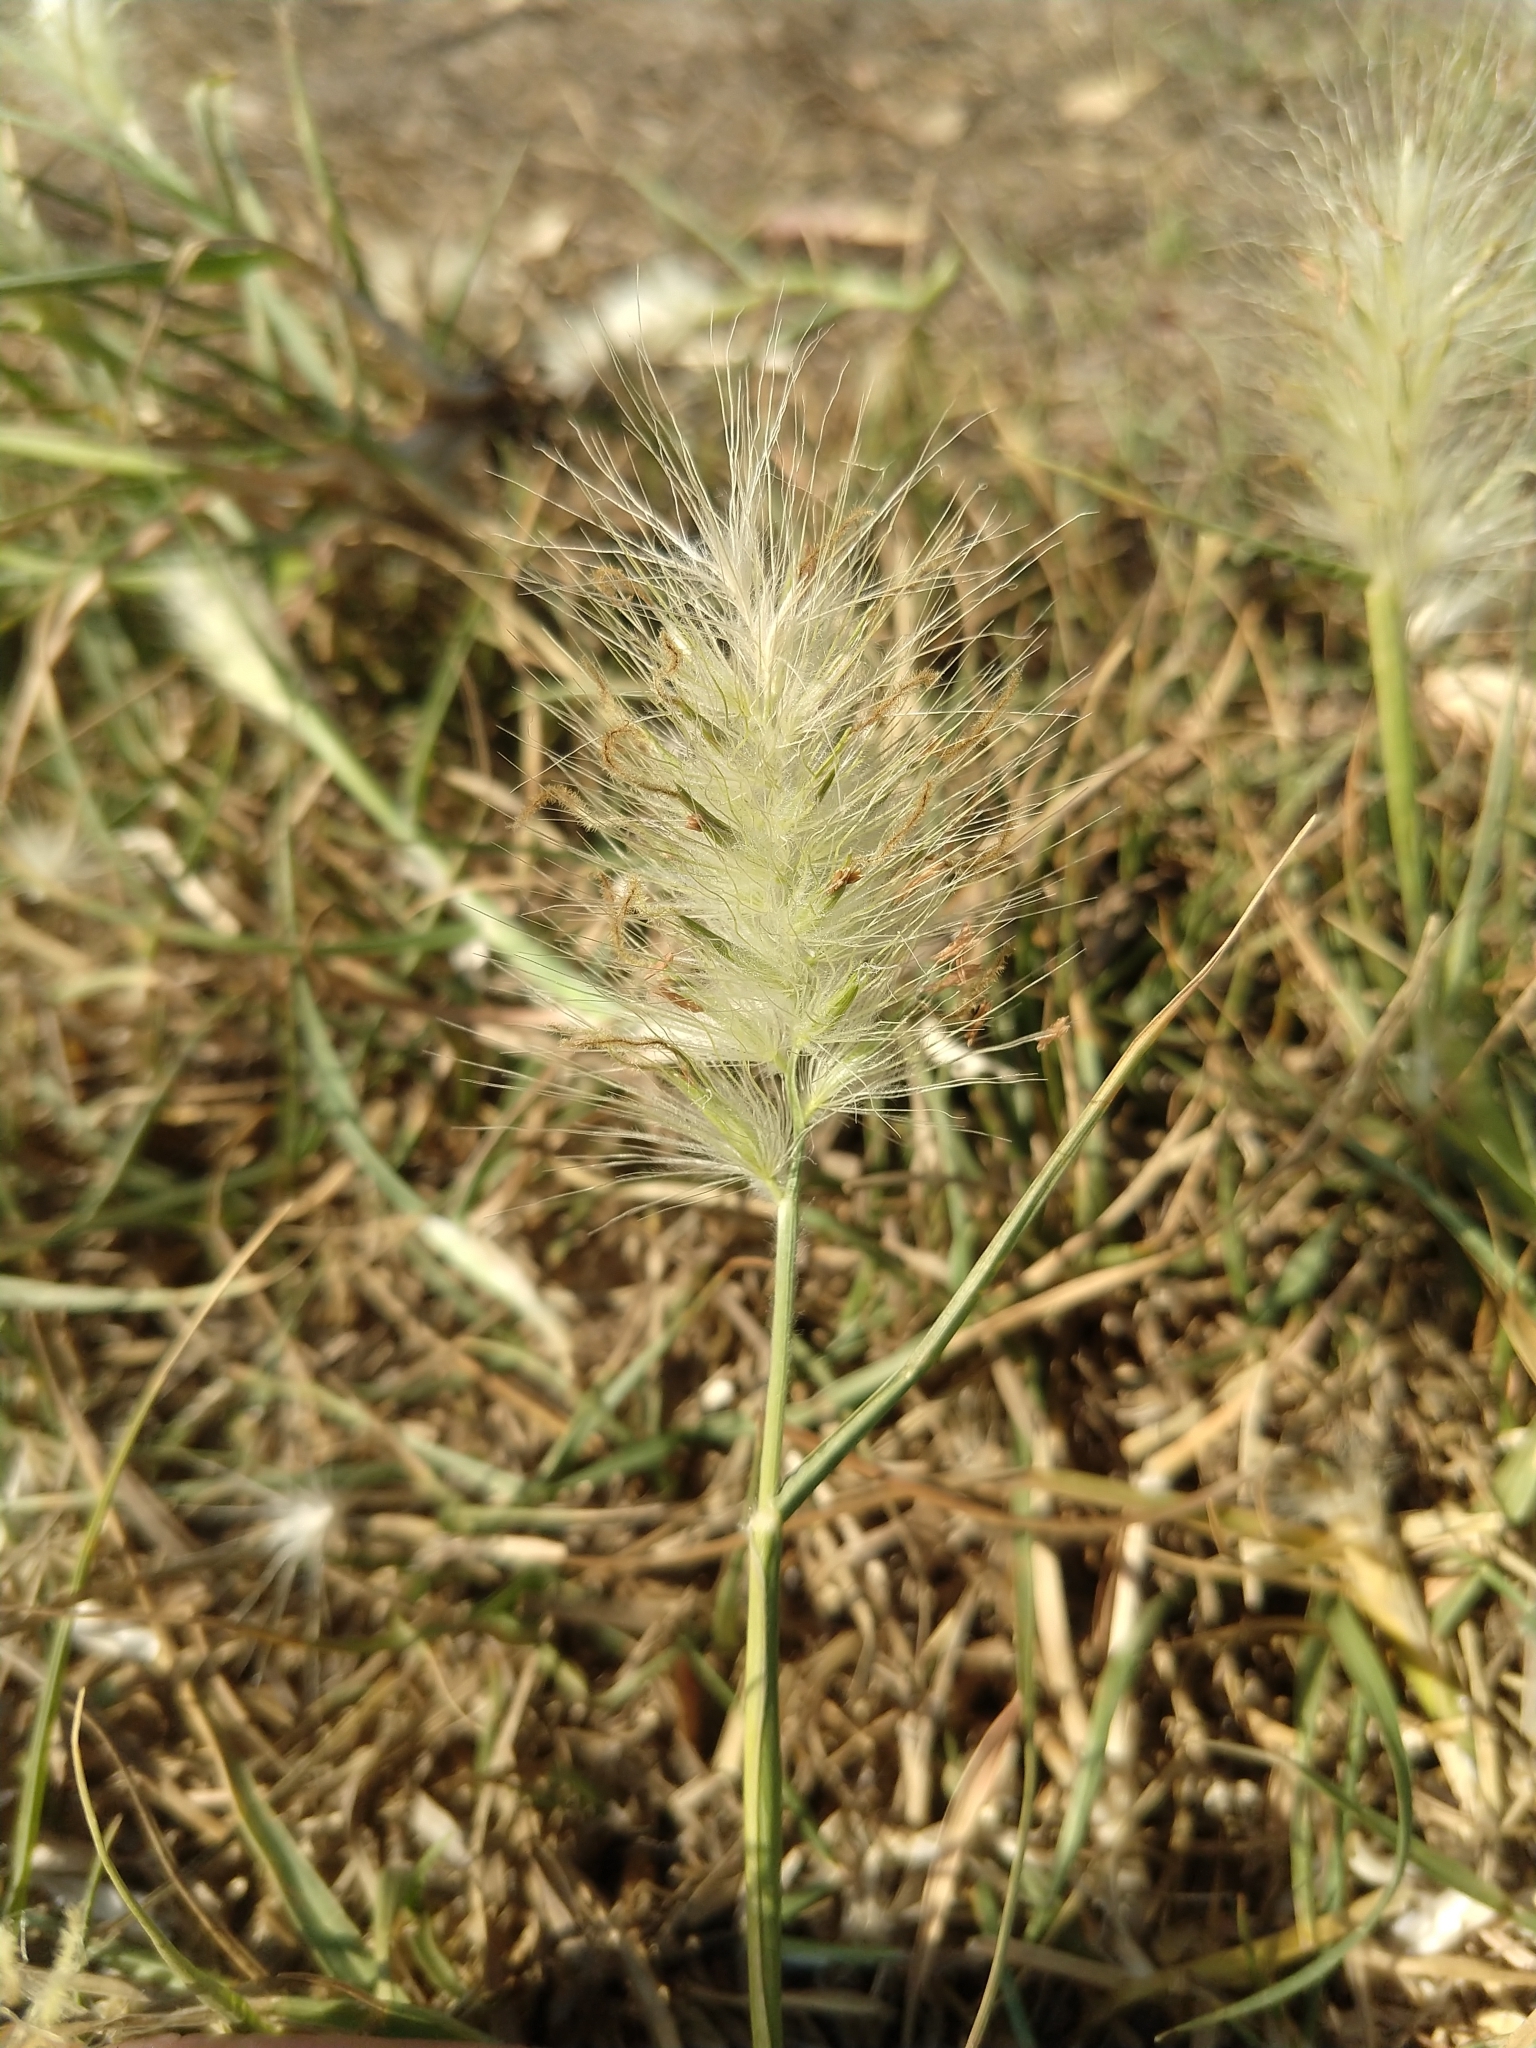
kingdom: Plantae
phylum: Tracheophyta
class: Liliopsida
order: Poales
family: Poaceae
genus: Cenchrus
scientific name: Cenchrus longisetus
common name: Feathertop
